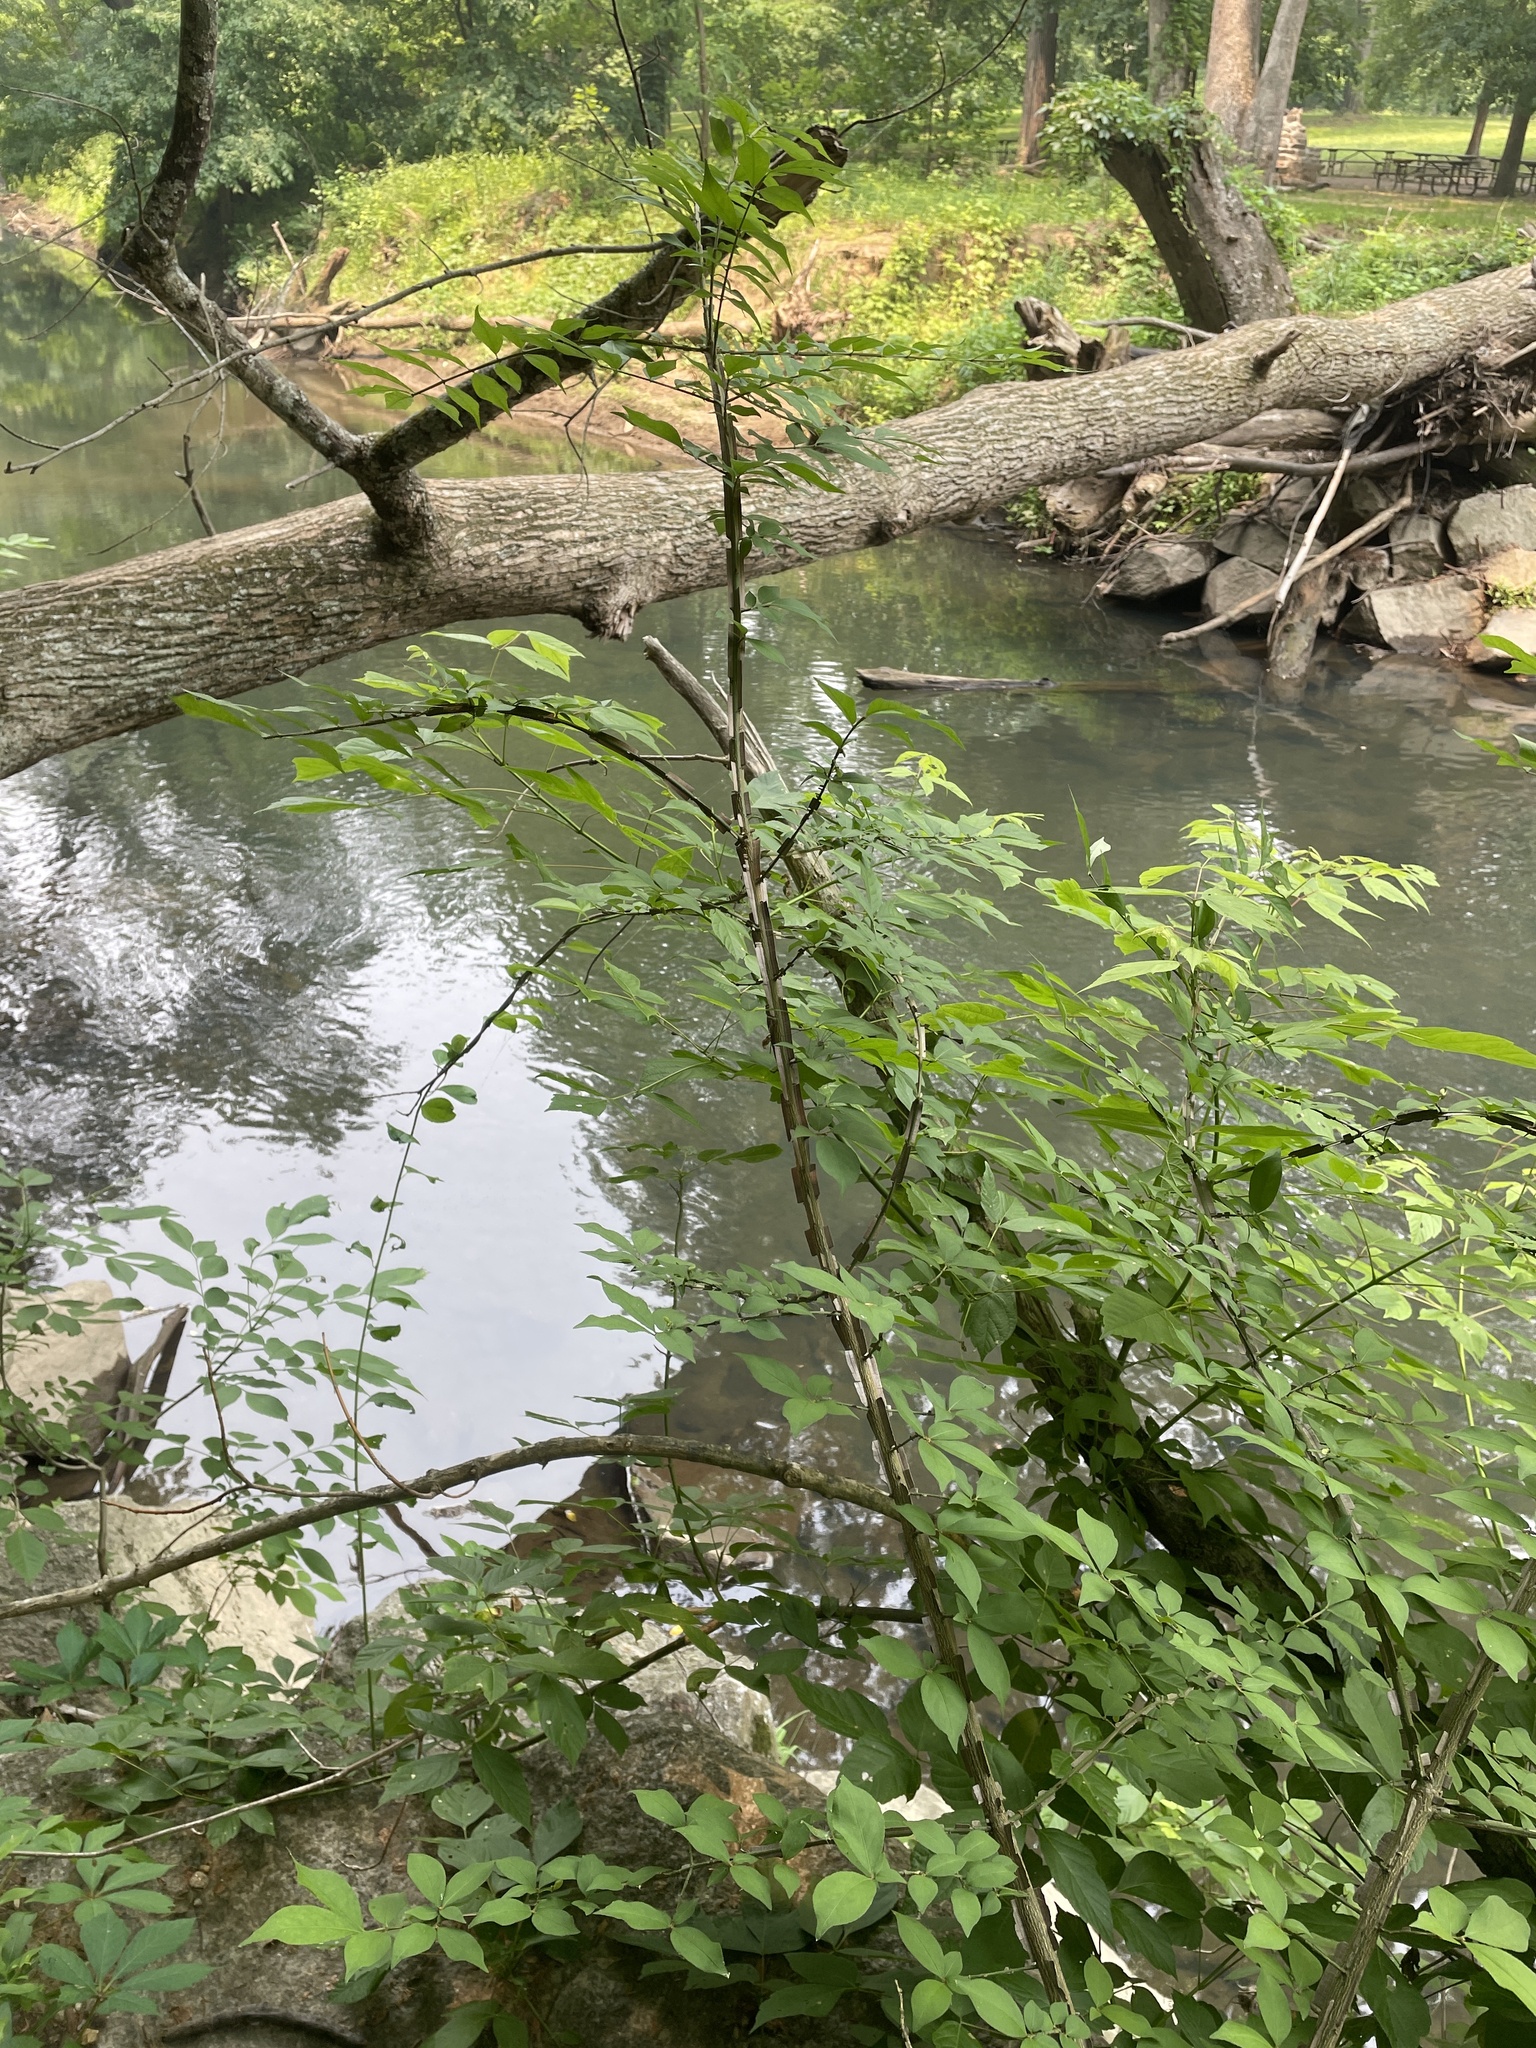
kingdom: Plantae
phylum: Tracheophyta
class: Magnoliopsida
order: Celastrales
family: Celastraceae
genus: Euonymus
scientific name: Euonymus alatus
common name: Winged euonymus
